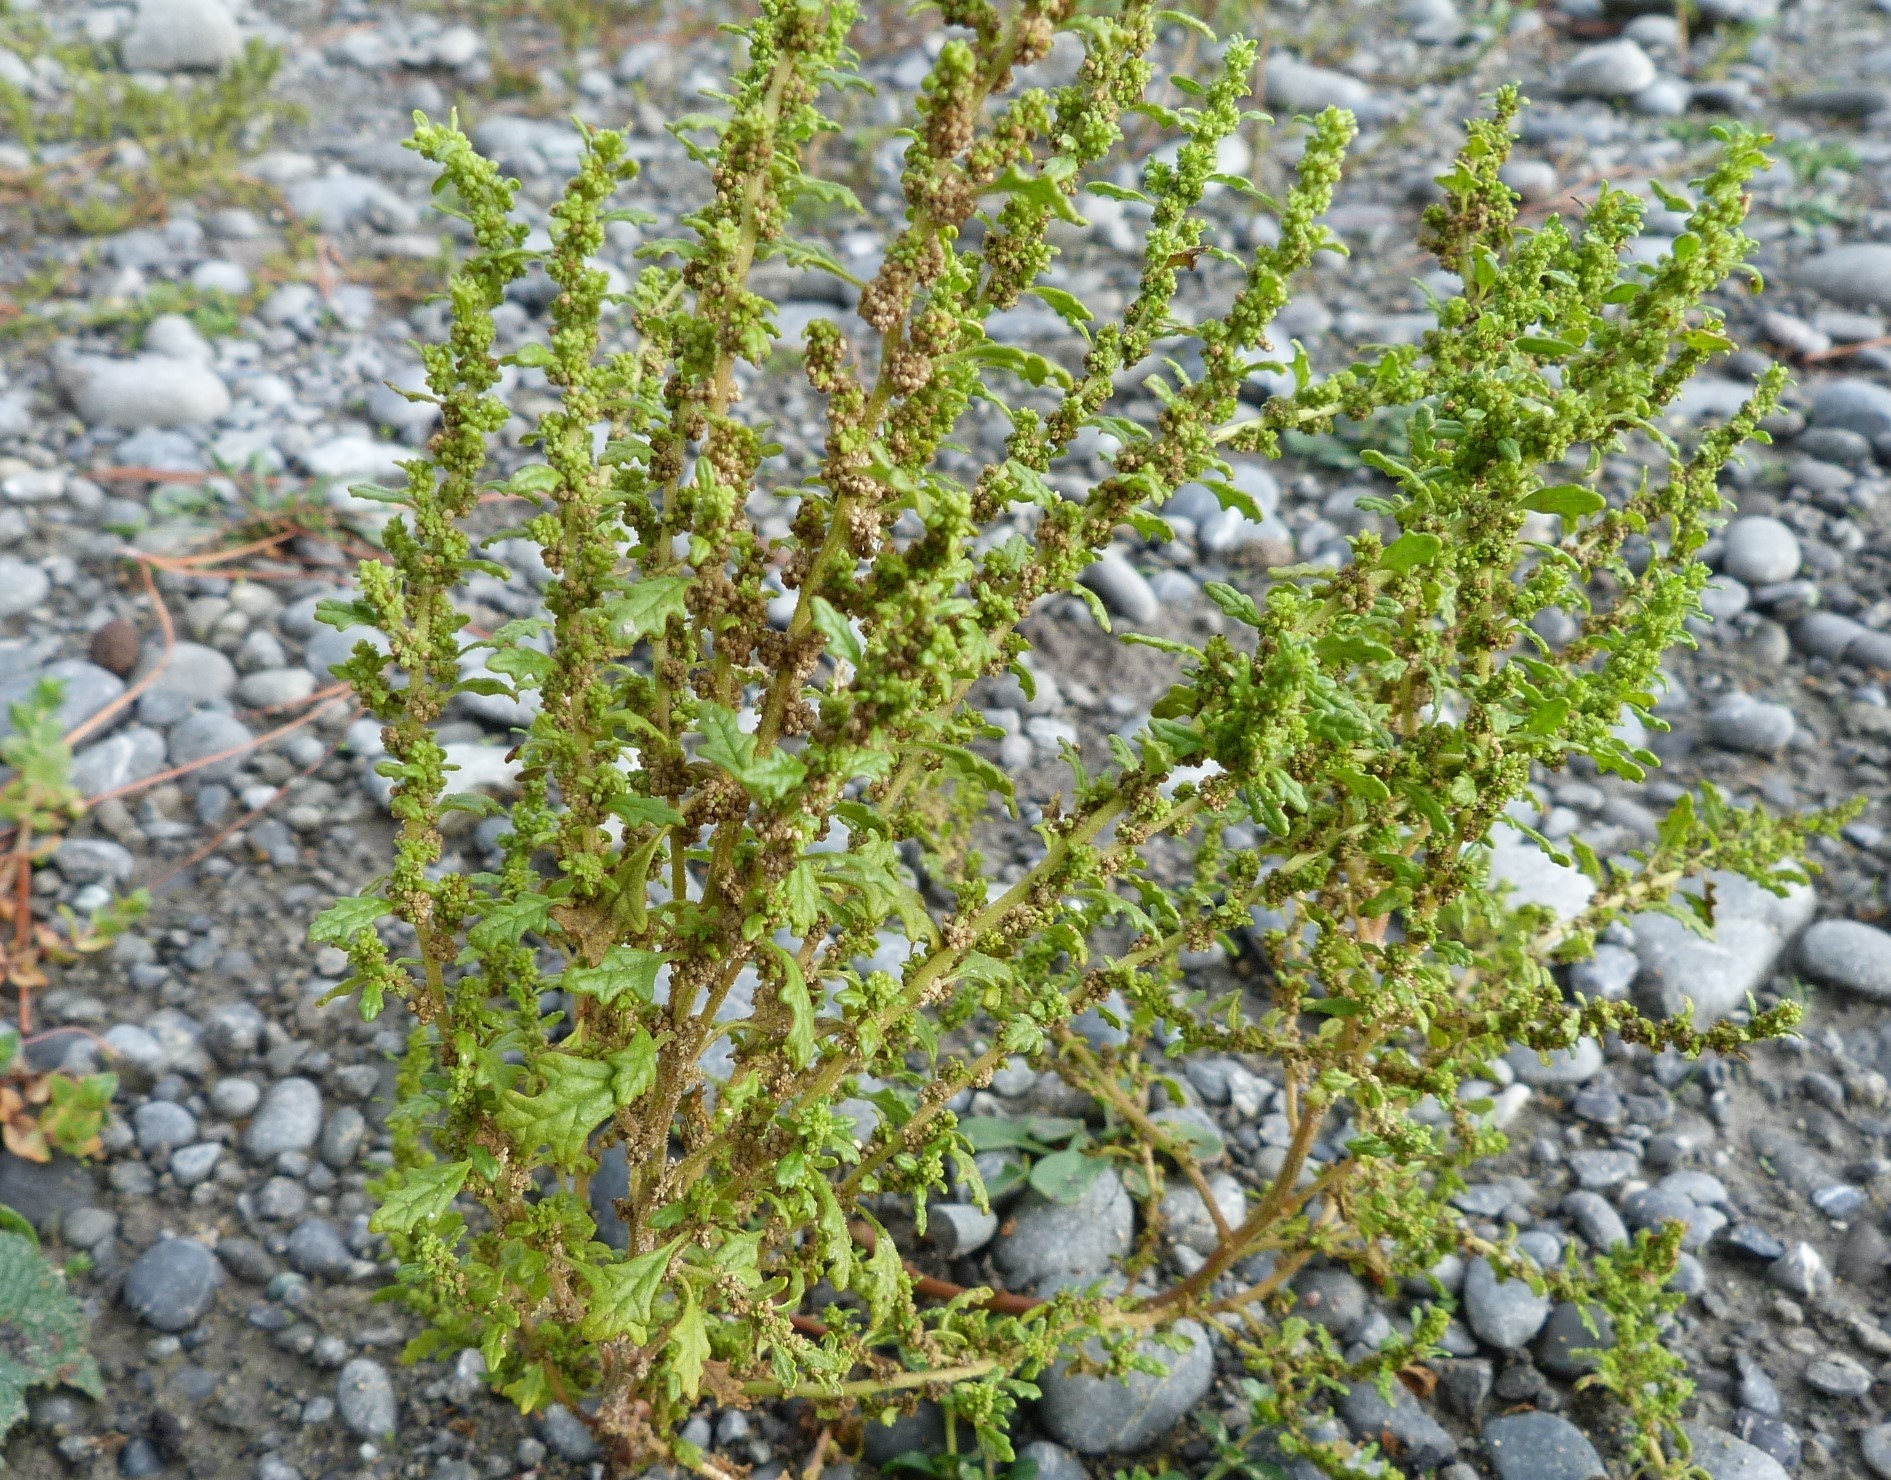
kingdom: Plantae
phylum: Tracheophyta
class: Magnoliopsida
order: Caryophyllales
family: Amaranthaceae
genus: Dysphania
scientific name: Dysphania pumilio
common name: Clammy goosefoot
